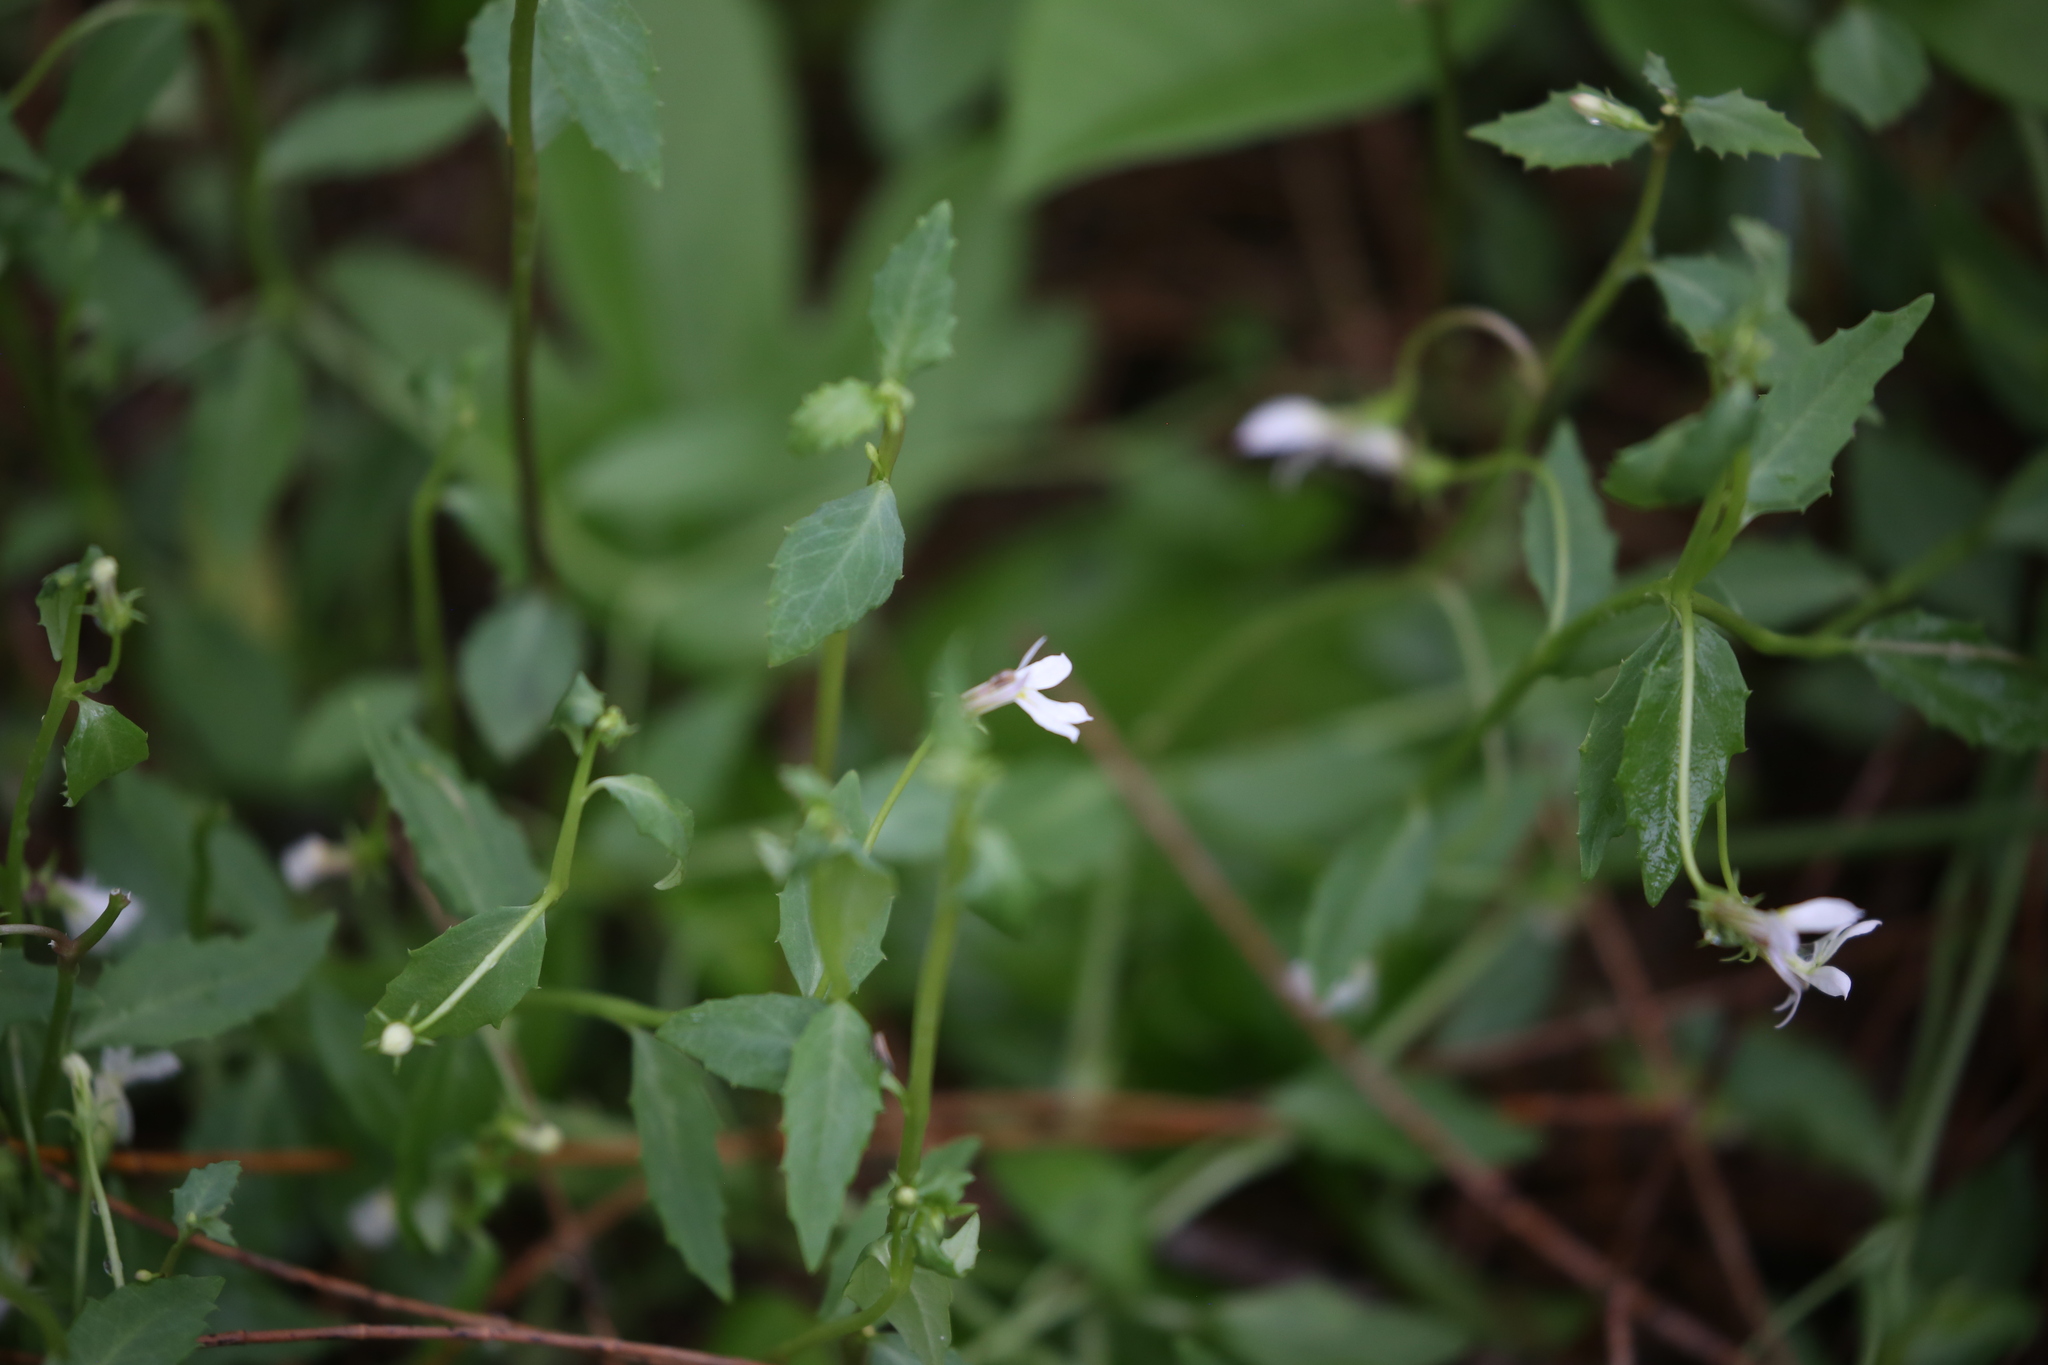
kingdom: Plantae
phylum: Tracheophyta
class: Magnoliopsida
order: Asterales
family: Campanulaceae
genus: Lobelia
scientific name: Lobelia purpurascens
